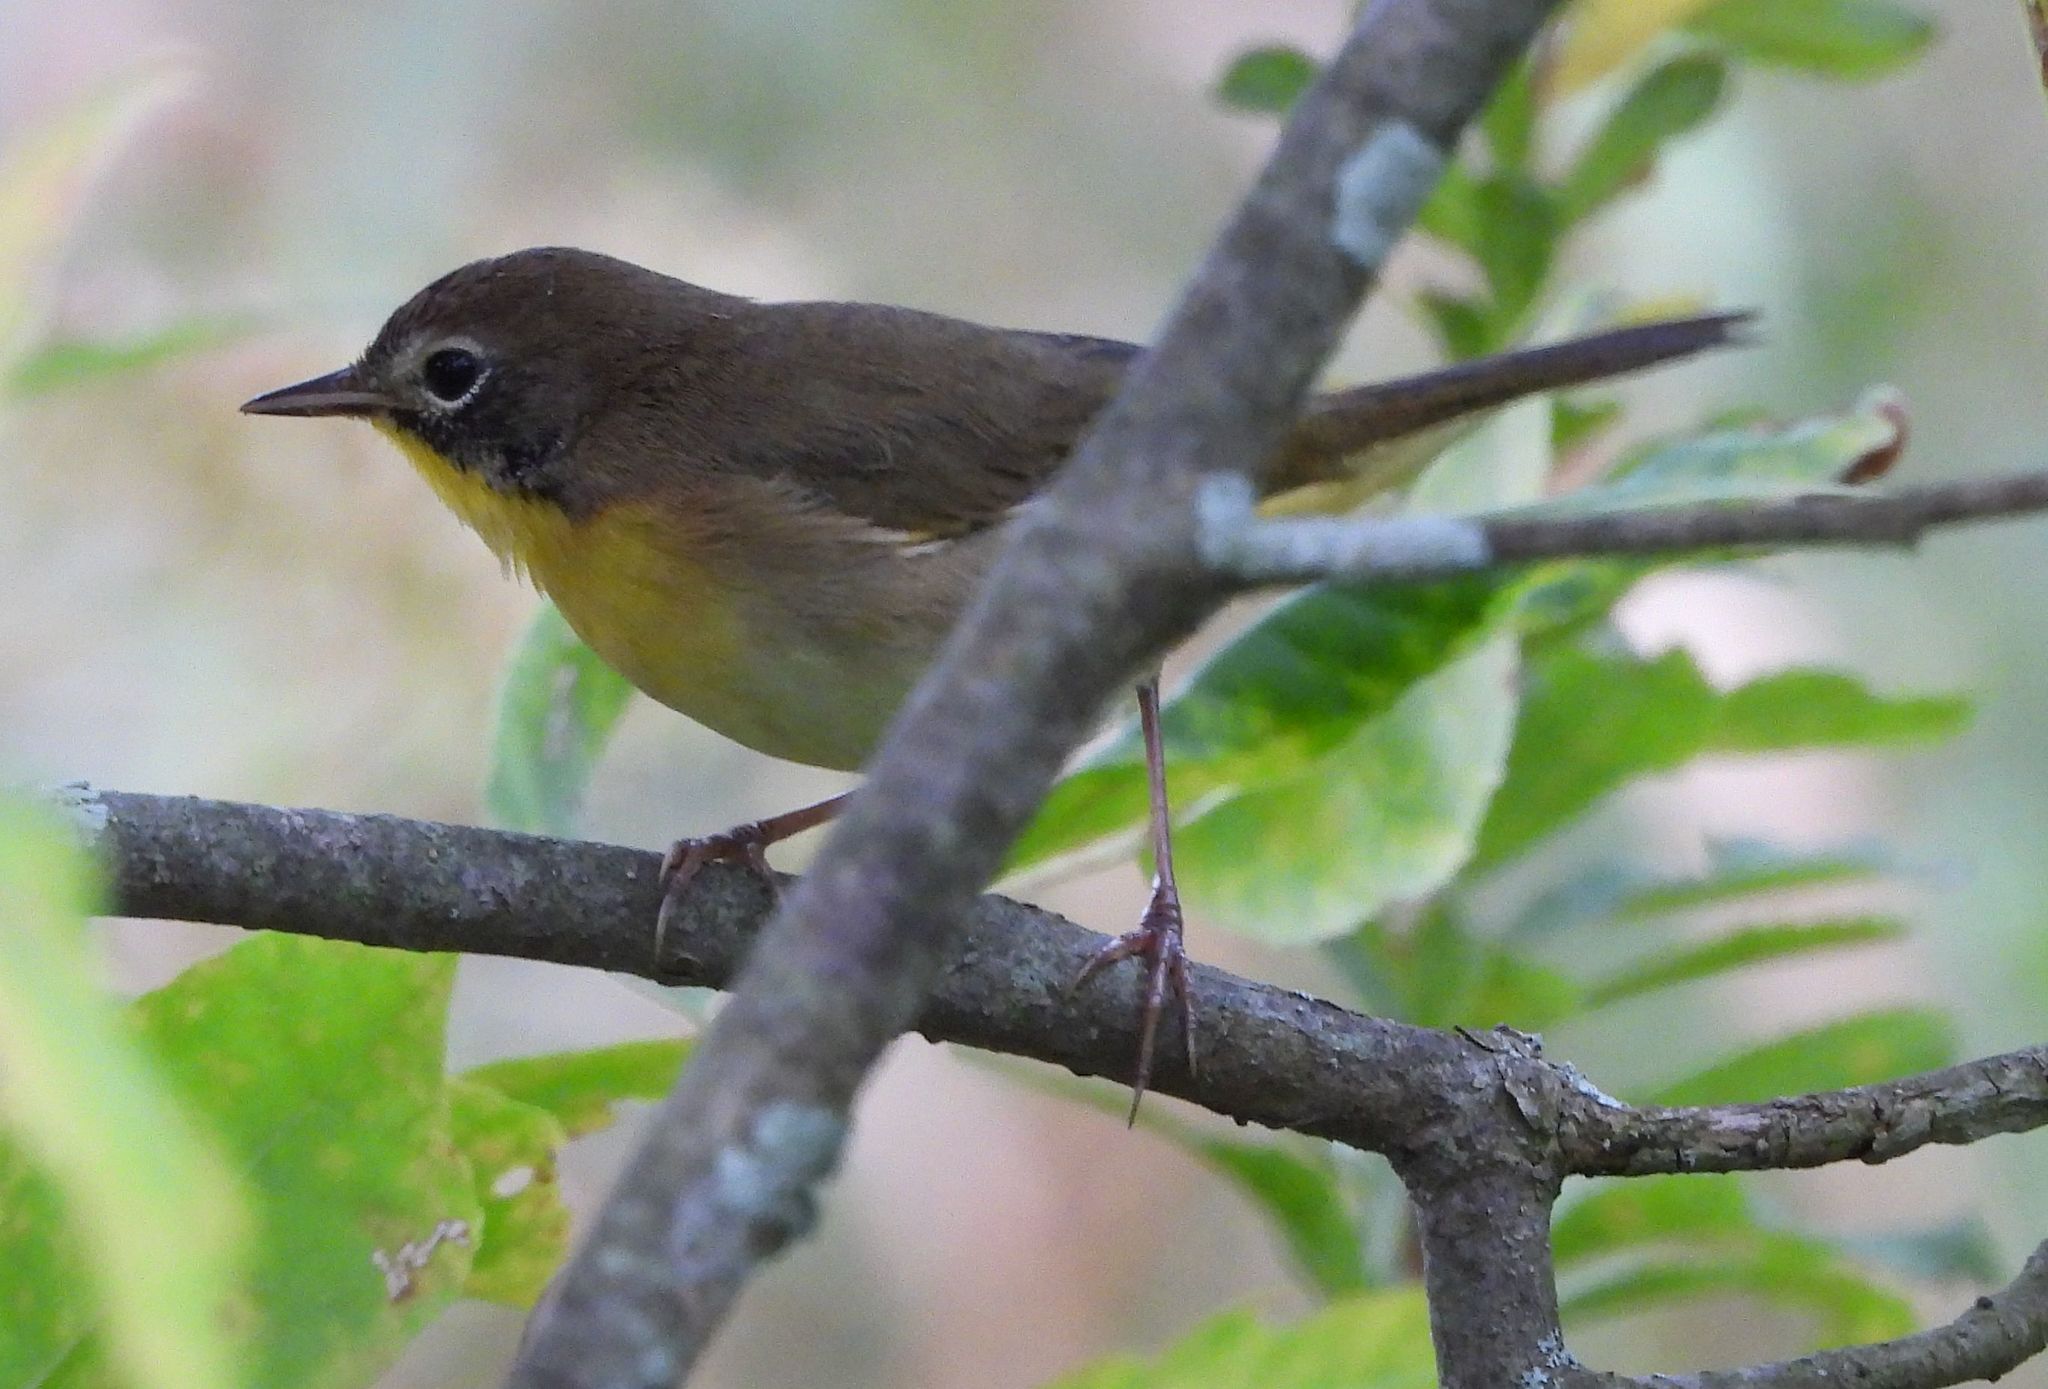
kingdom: Animalia
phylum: Chordata
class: Aves
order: Passeriformes
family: Parulidae
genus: Geothlypis
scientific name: Geothlypis trichas
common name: Common yellowthroat
